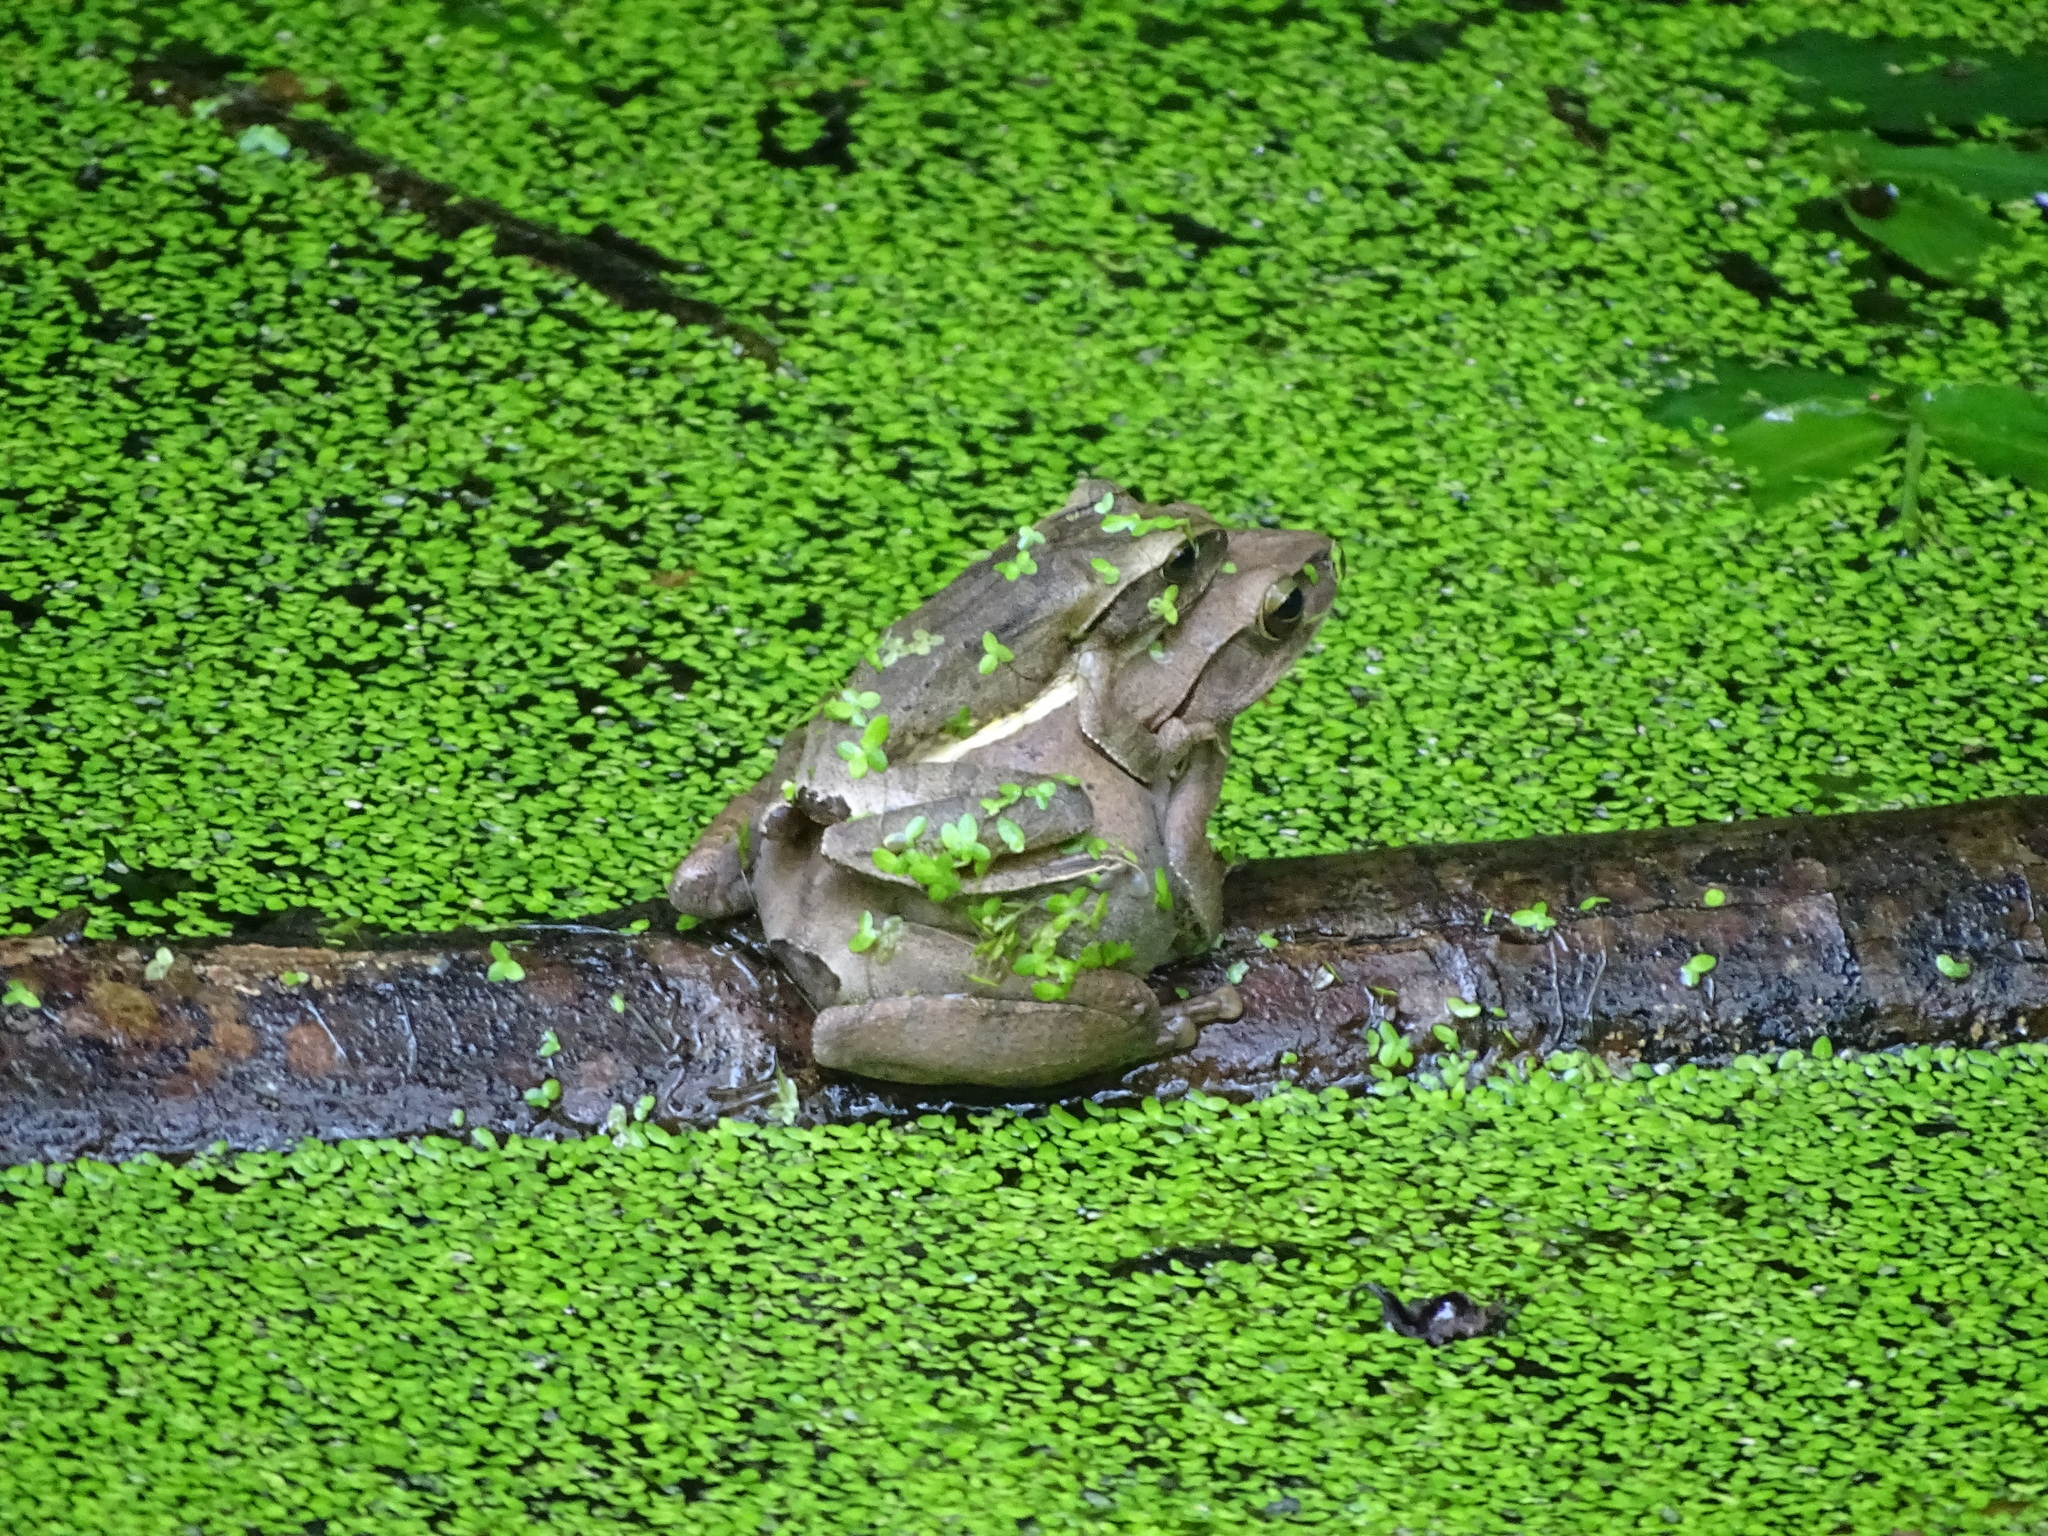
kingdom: Animalia
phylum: Chordata
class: Amphibia
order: Anura
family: Rhacophoridae
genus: Polypedates
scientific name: Polypedates megacephalus
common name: Hong kong whipping frog
